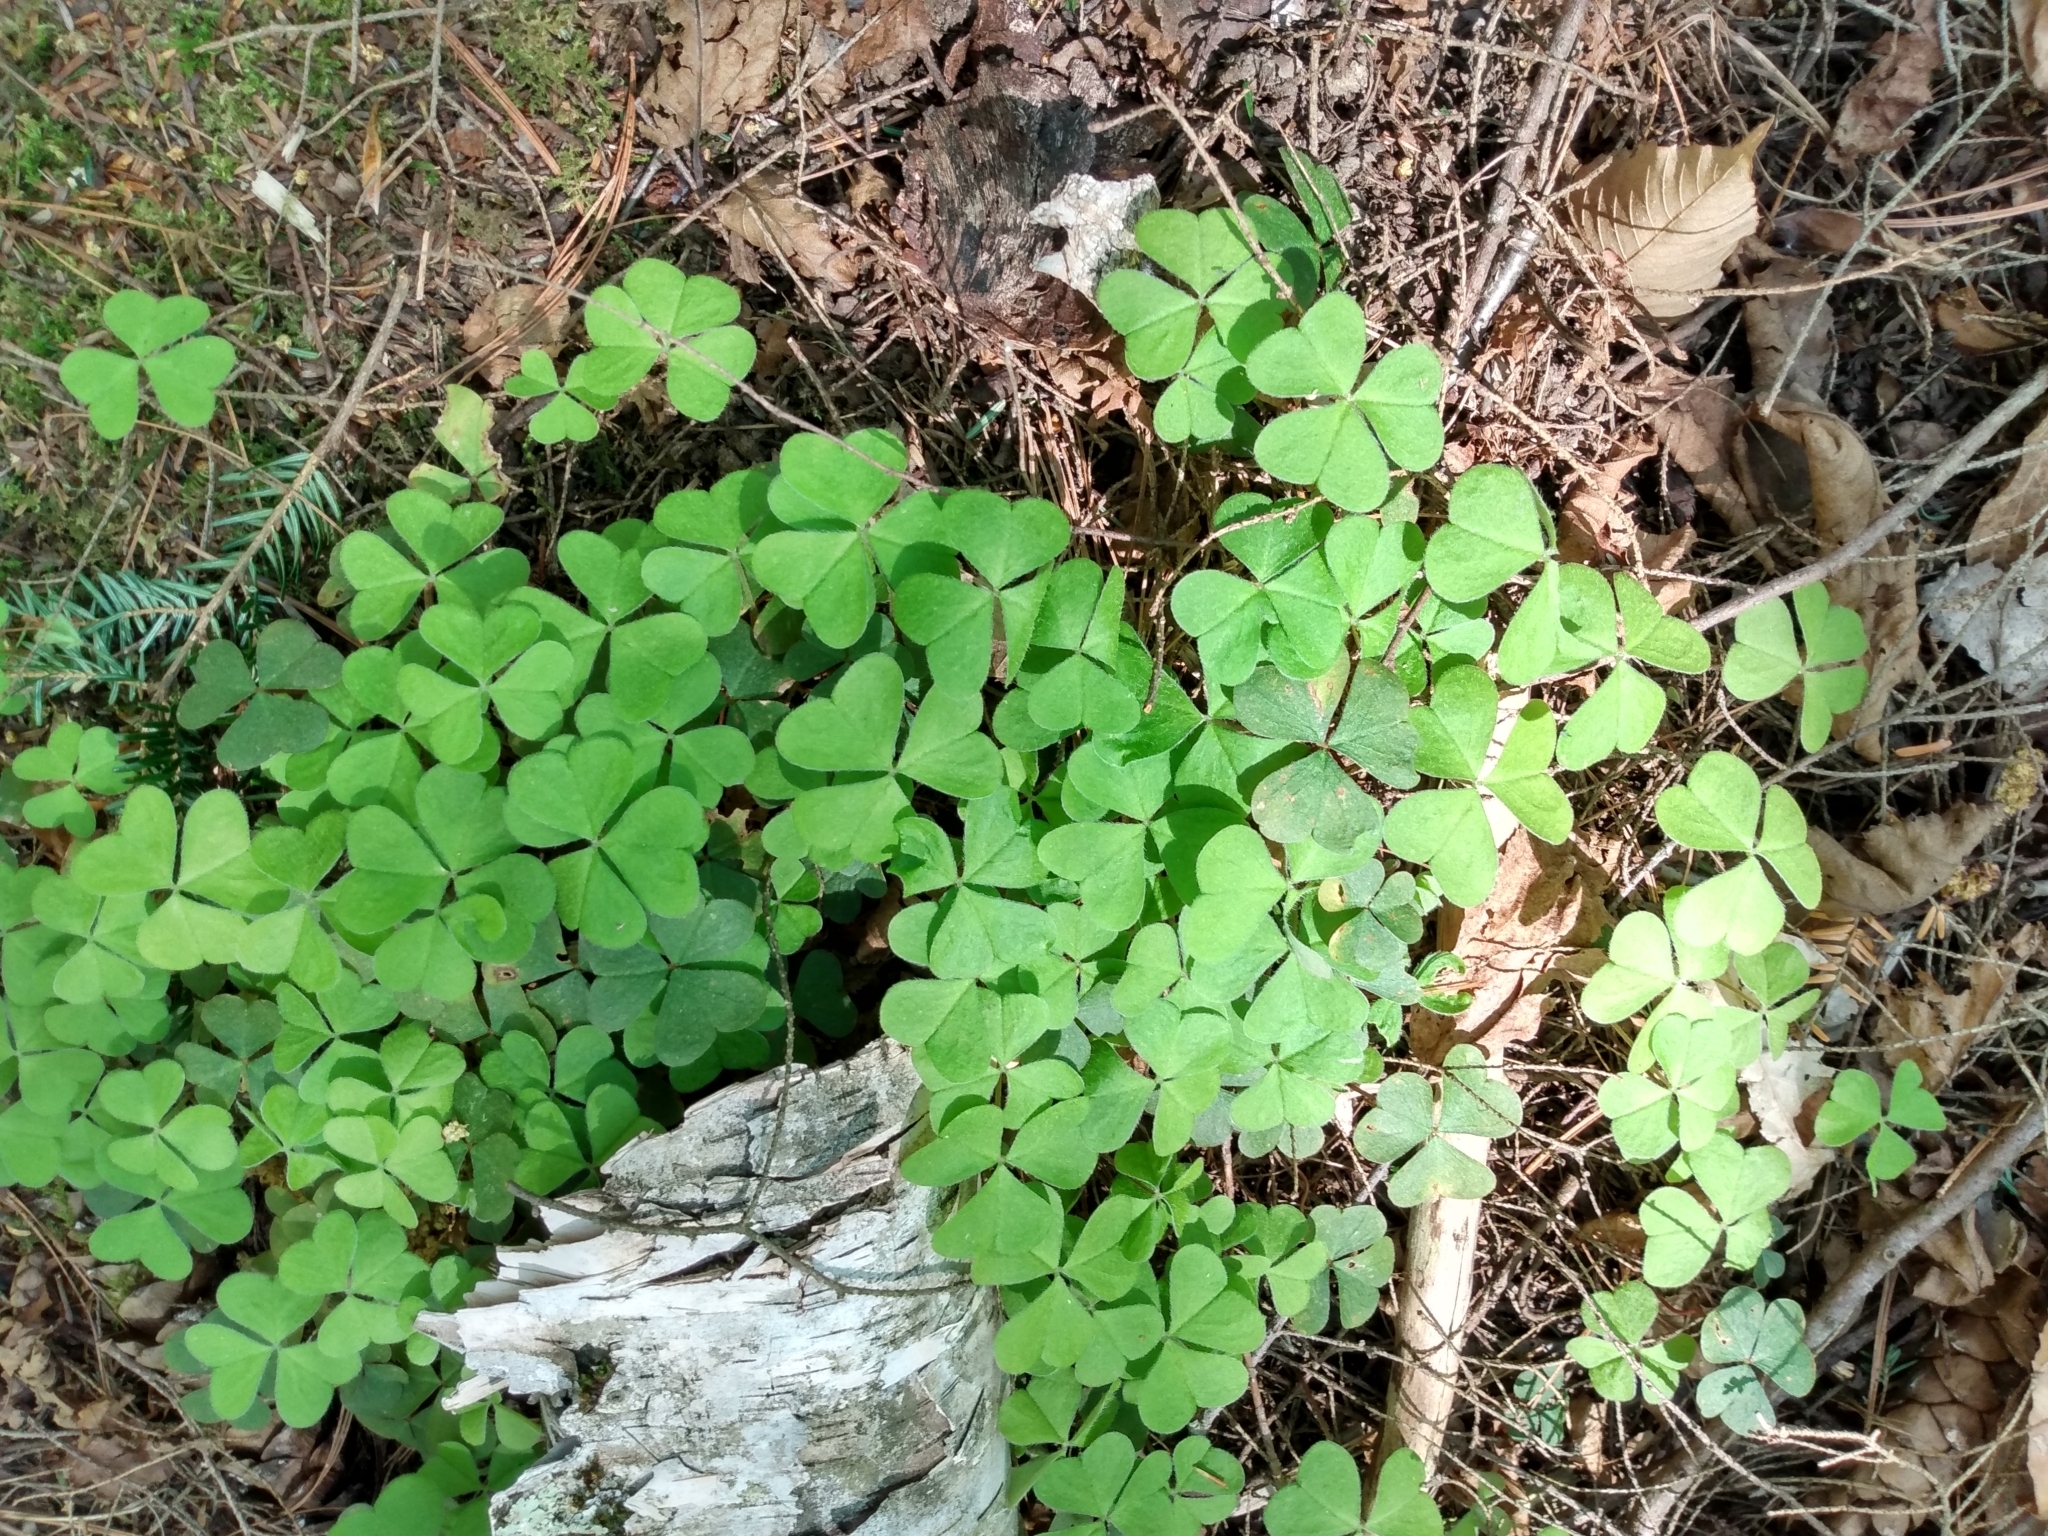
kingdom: Plantae
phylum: Tracheophyta
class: Magnoliopsida
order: Oxalidales
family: Oxalidaceae
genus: Oxalis
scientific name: Oxalis montana
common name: American wood-sorrel
